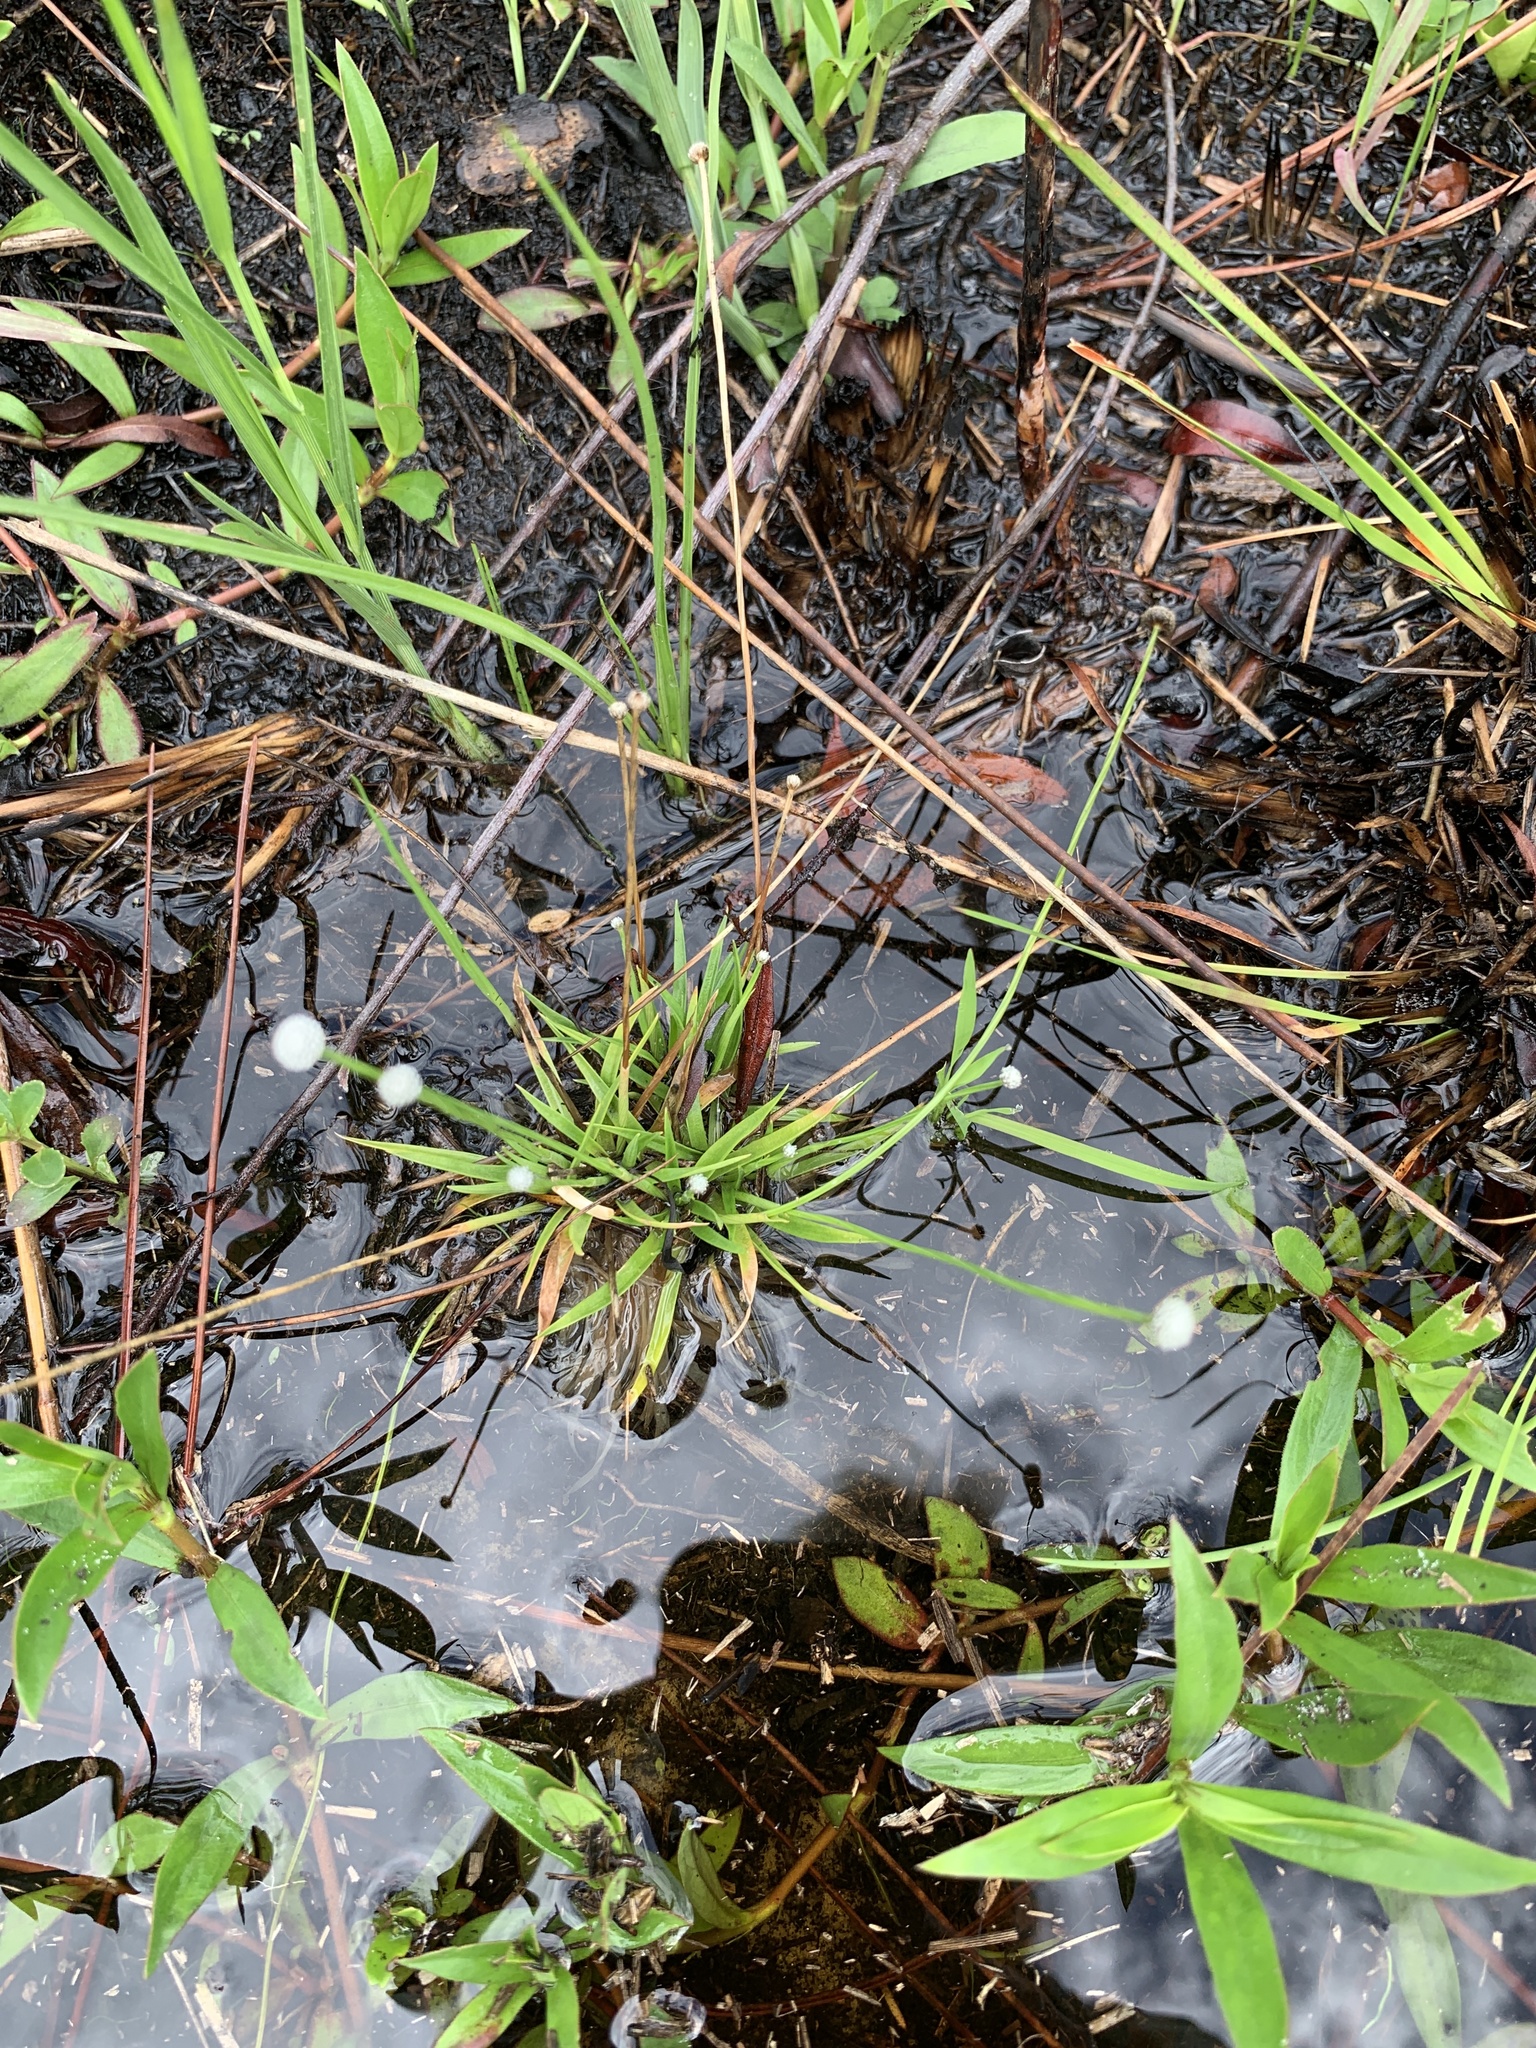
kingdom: Plantae
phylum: Tracheophyta
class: Liliopsida
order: Poales
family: Eriocaulaceae
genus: Paepalanthus
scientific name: Paepalanthus anceps
